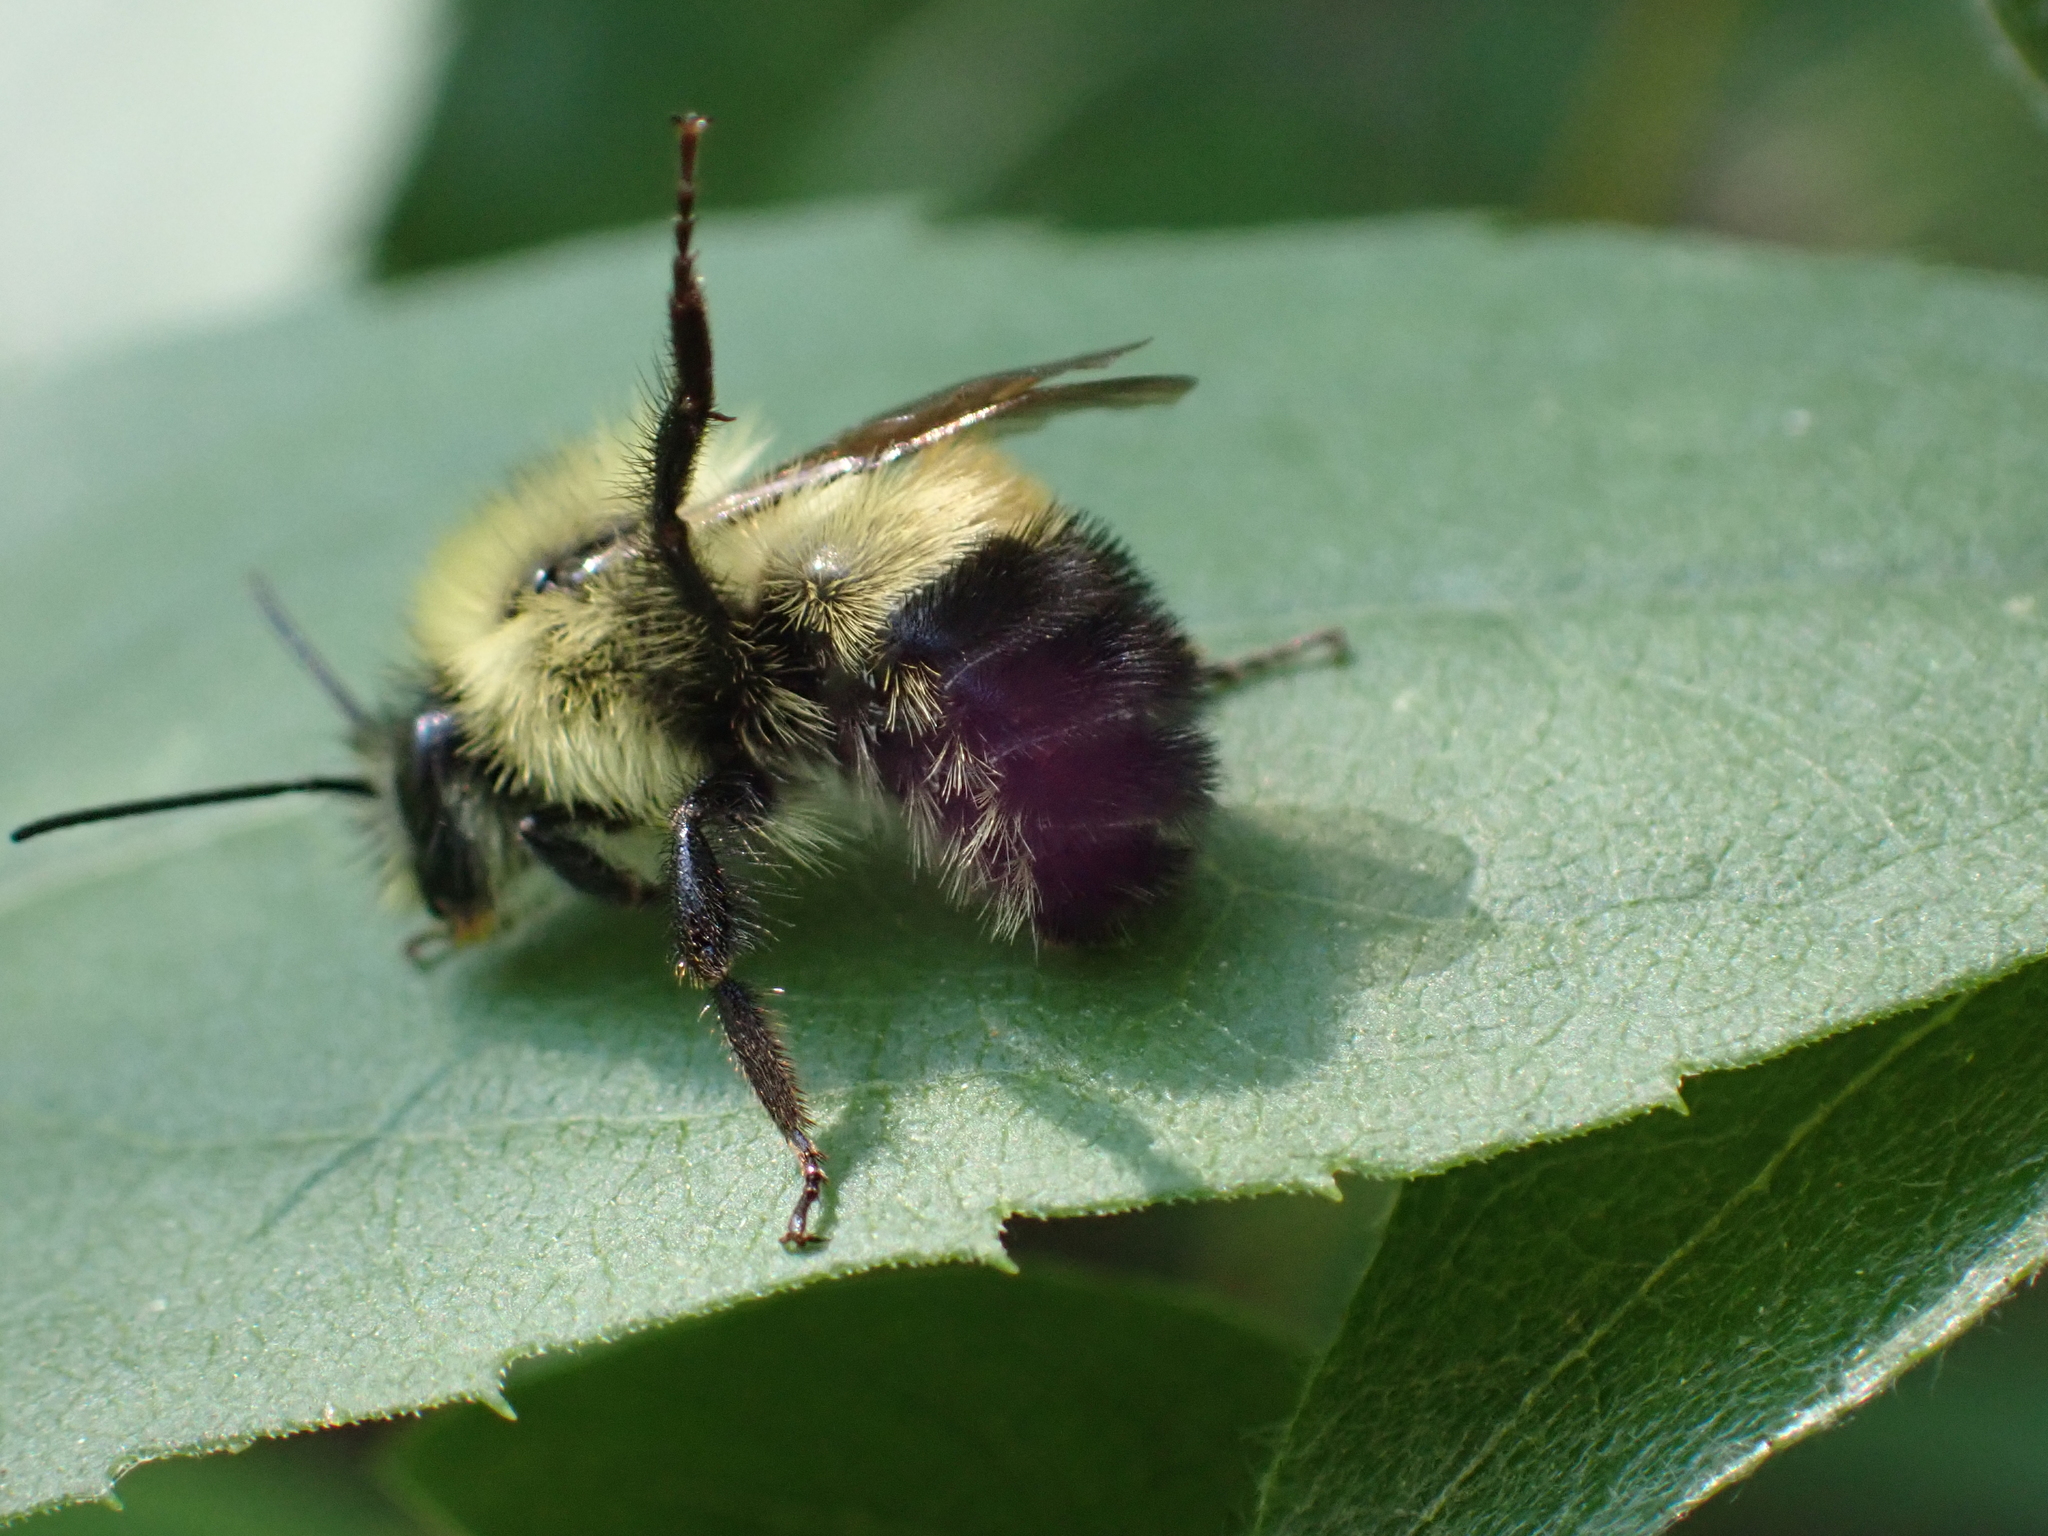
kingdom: Animalia
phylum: Arthropoda
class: Insecta
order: Hymenoptera
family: Apidae
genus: Bombus
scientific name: Bombus vagans
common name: Half-black bumble bee
